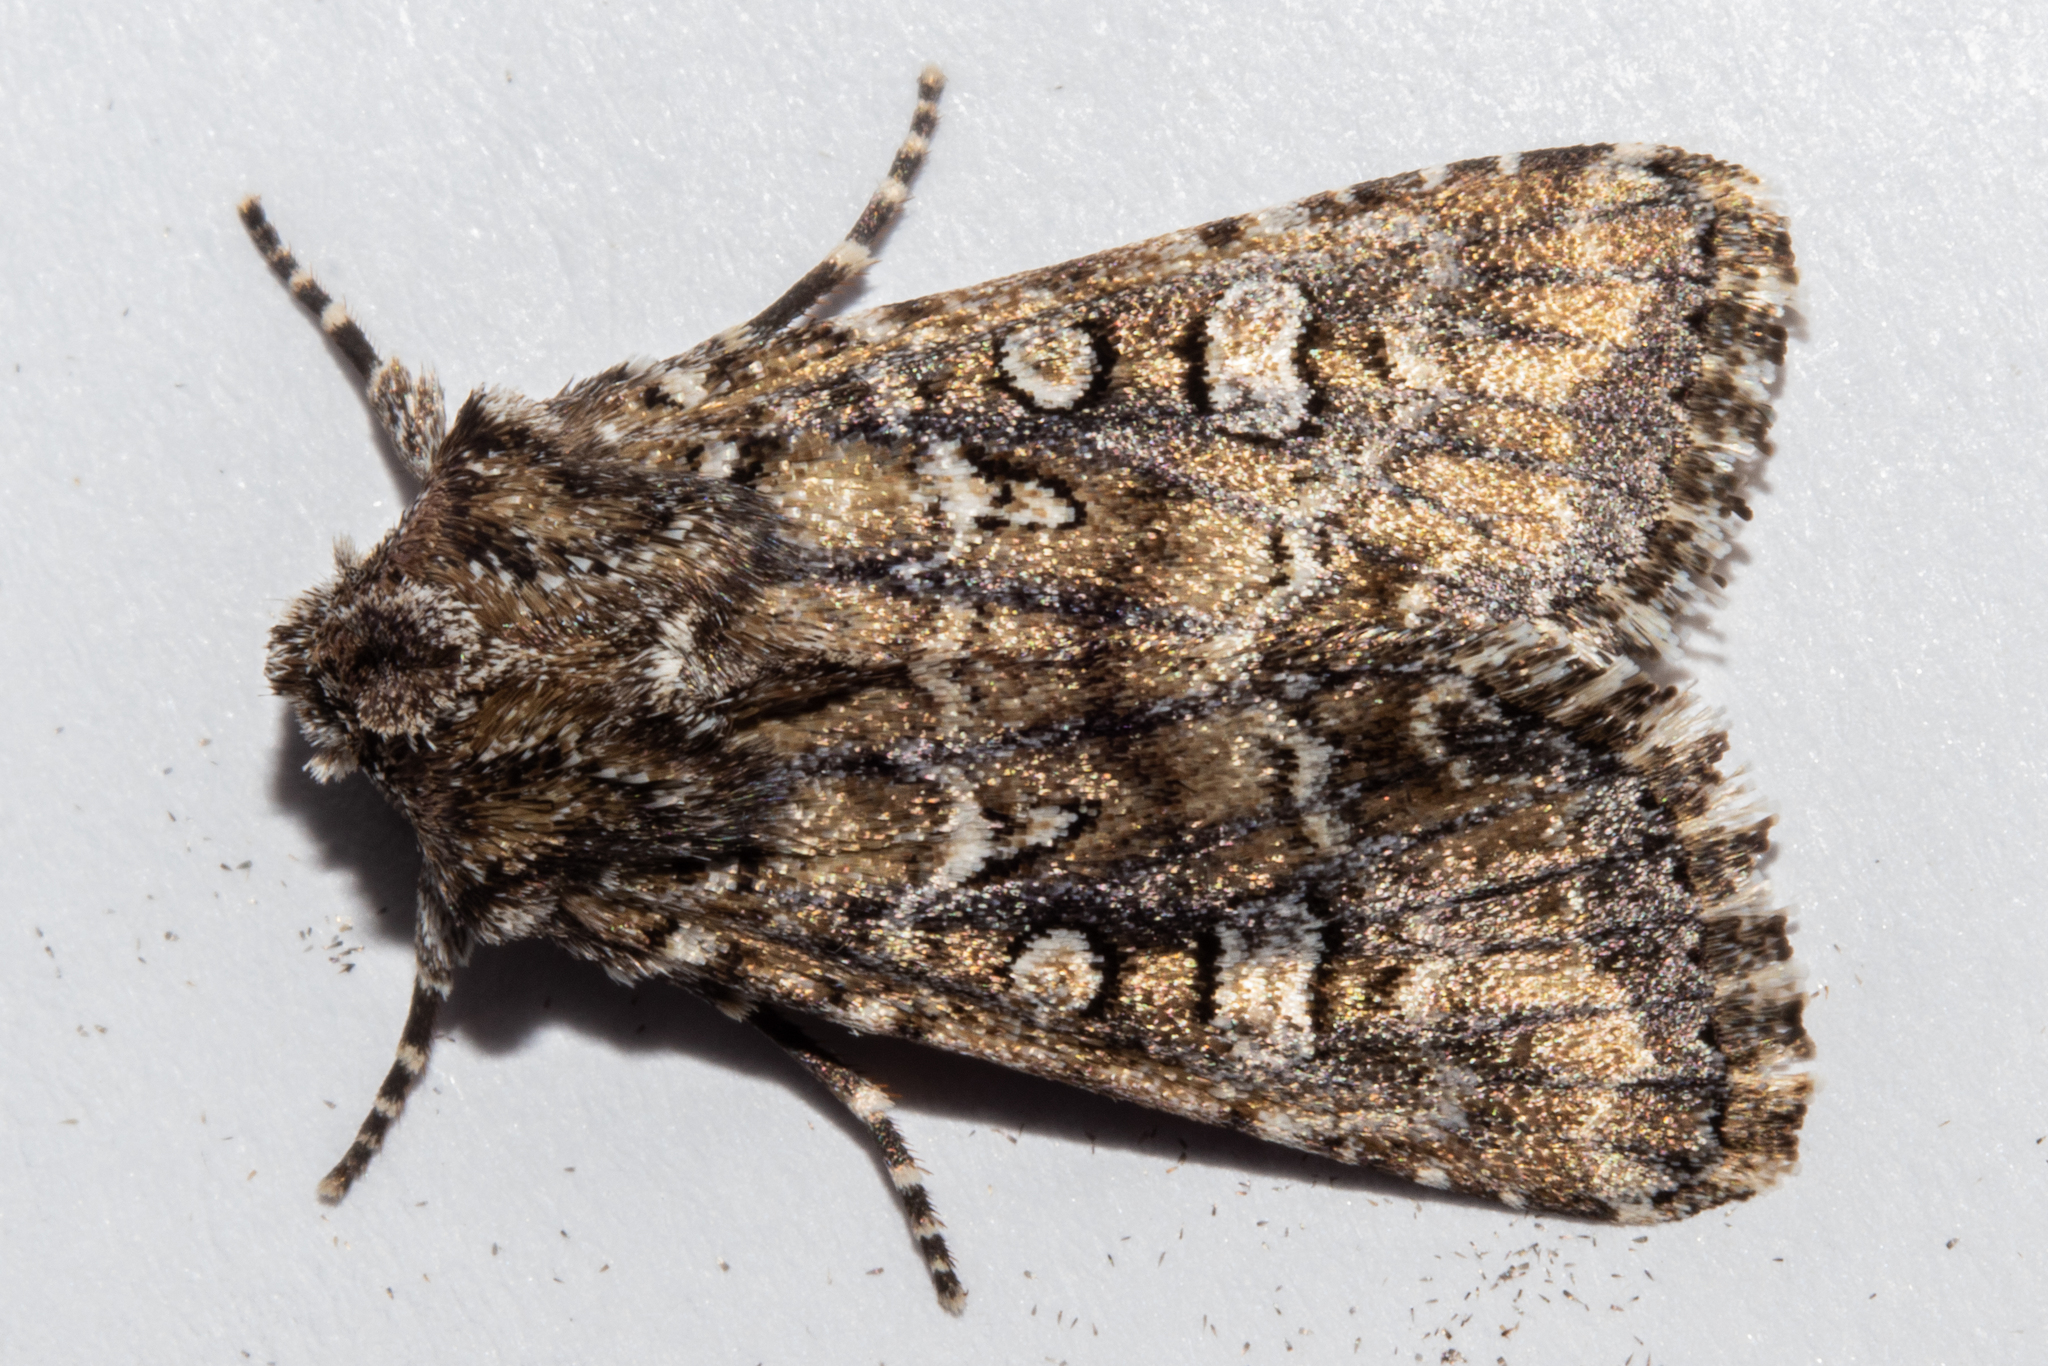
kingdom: Animalia
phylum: Arthropoda
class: Insecta
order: Lepidoptera
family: Noctuidae
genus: Ichneutica
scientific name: Ichneutica lithias
